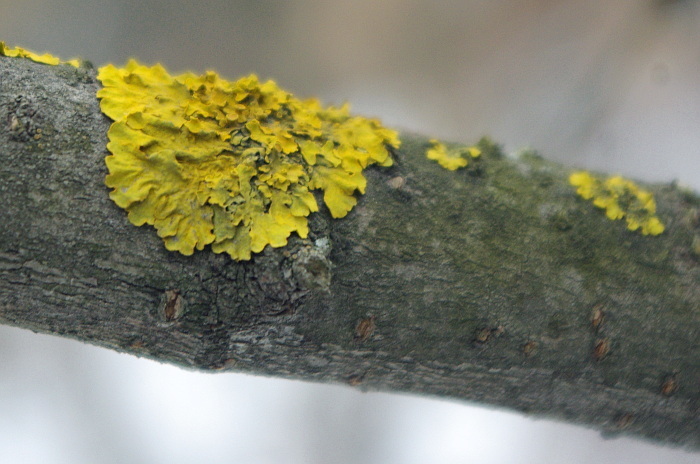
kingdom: Fungi
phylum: Ascomycota
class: Lecanoromycetes
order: Teloschistales
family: Teloschistaceae
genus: Xanthoria
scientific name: Xanthoria parietina
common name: Common orange lichen
